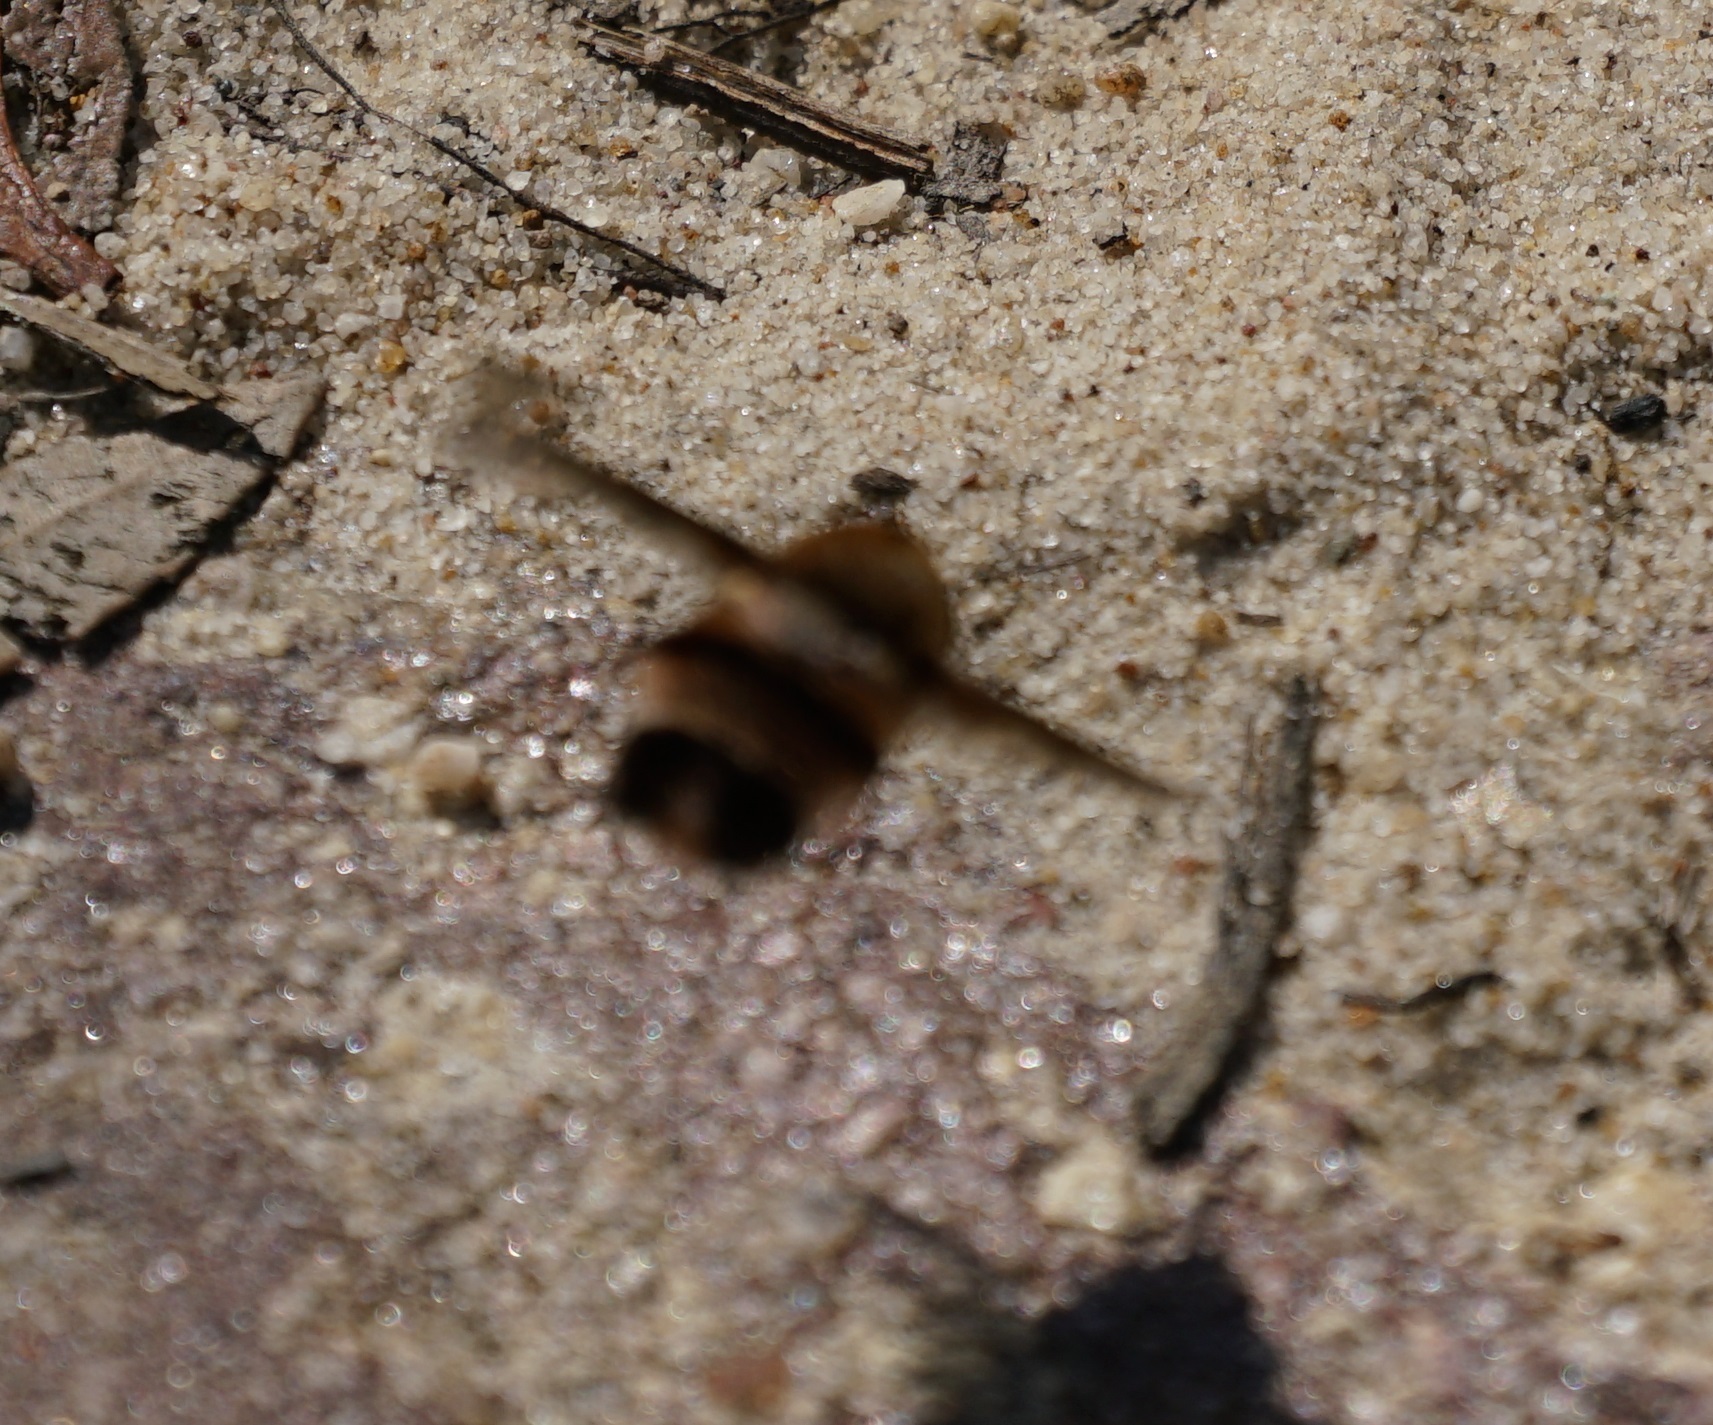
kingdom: Animalia
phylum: Arthropoda
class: Insecta
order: Diptera
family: Bombyliidae
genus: Meomyia
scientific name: Meomyia fasciculata
